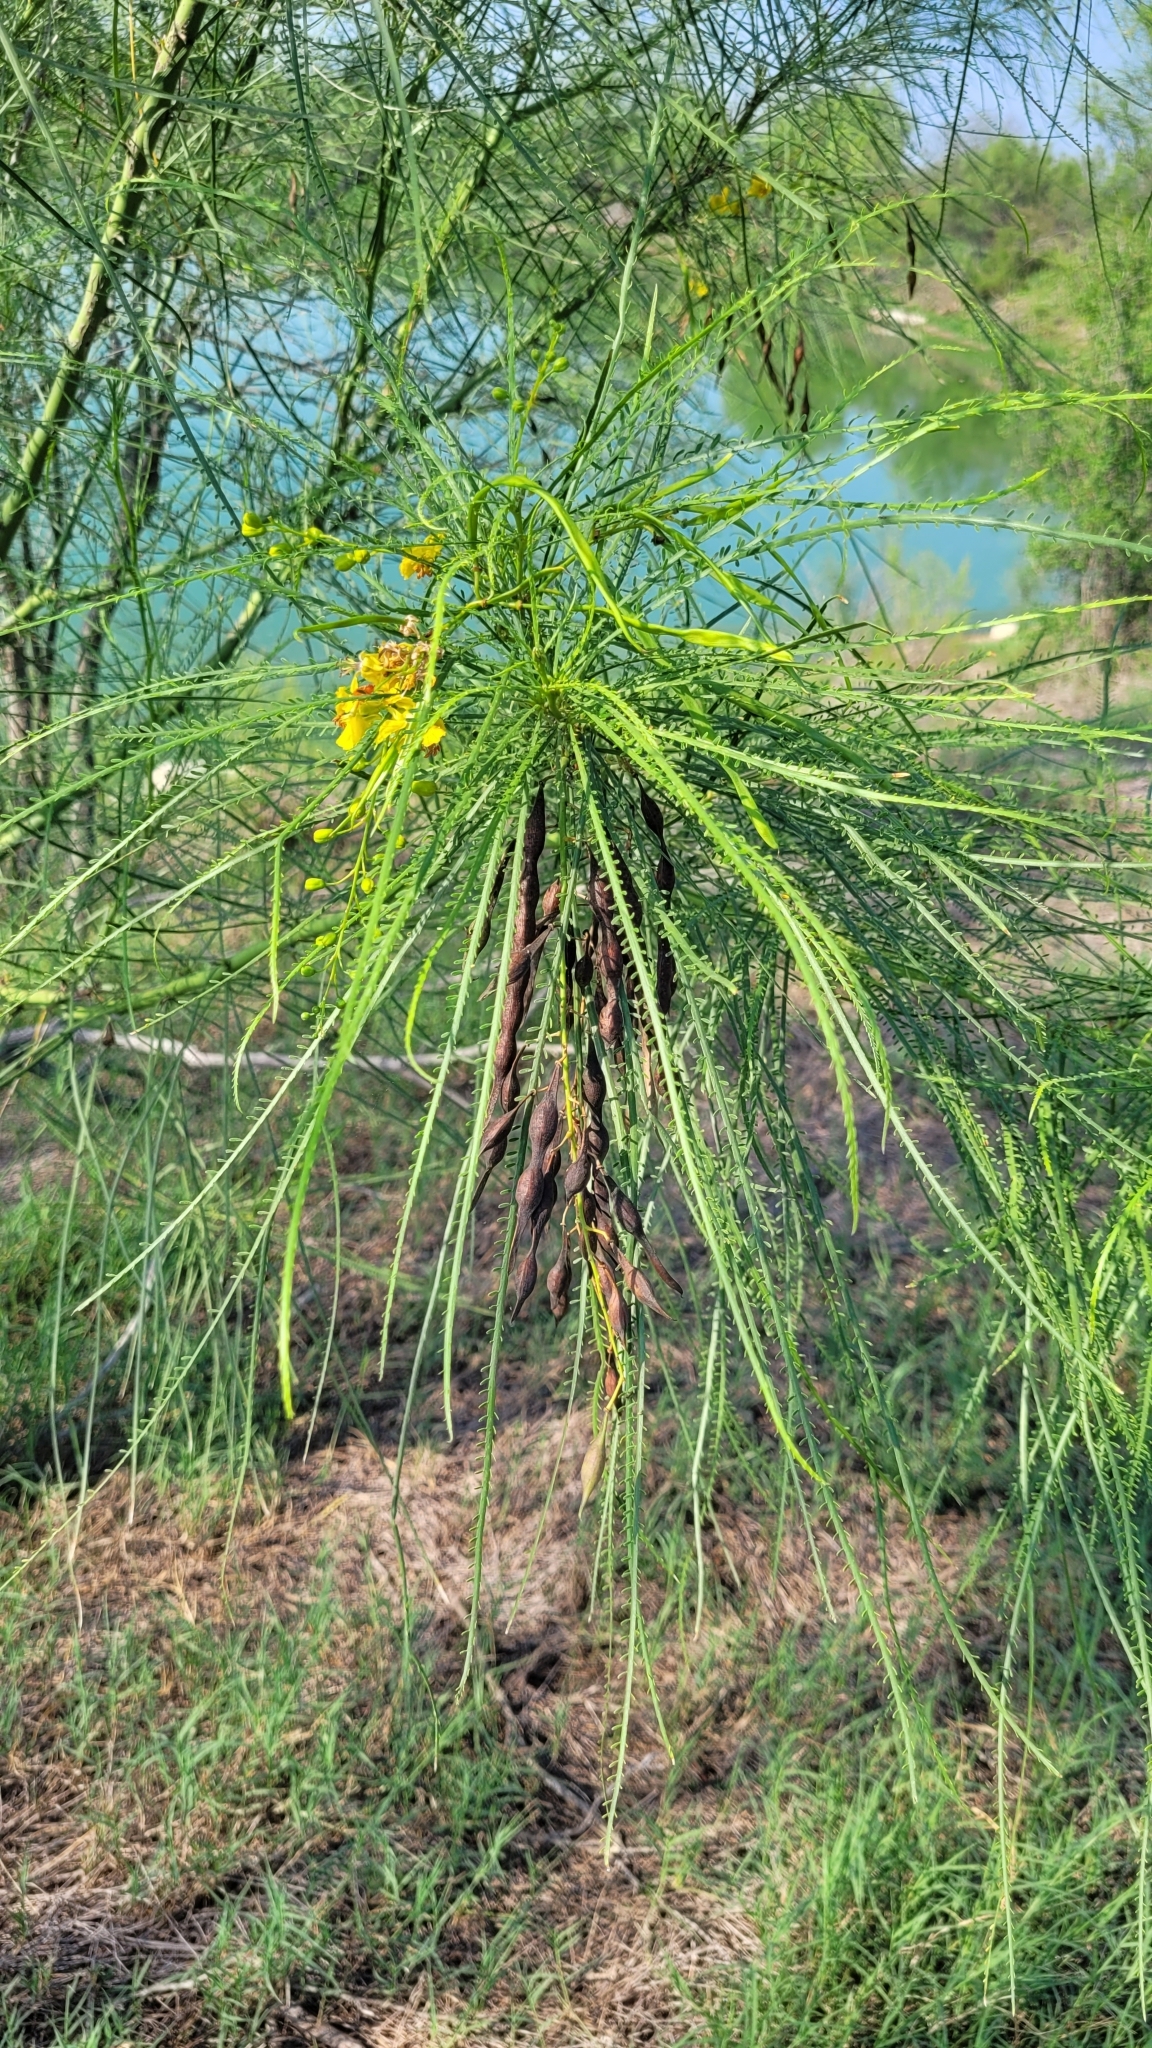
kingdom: Plantae
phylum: Tracheophyta
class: Magnoliopsida
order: Fabales
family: Fabaceae
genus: Parkinsonia
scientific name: Parkinsonia aculeata
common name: Jerusalem thorn
